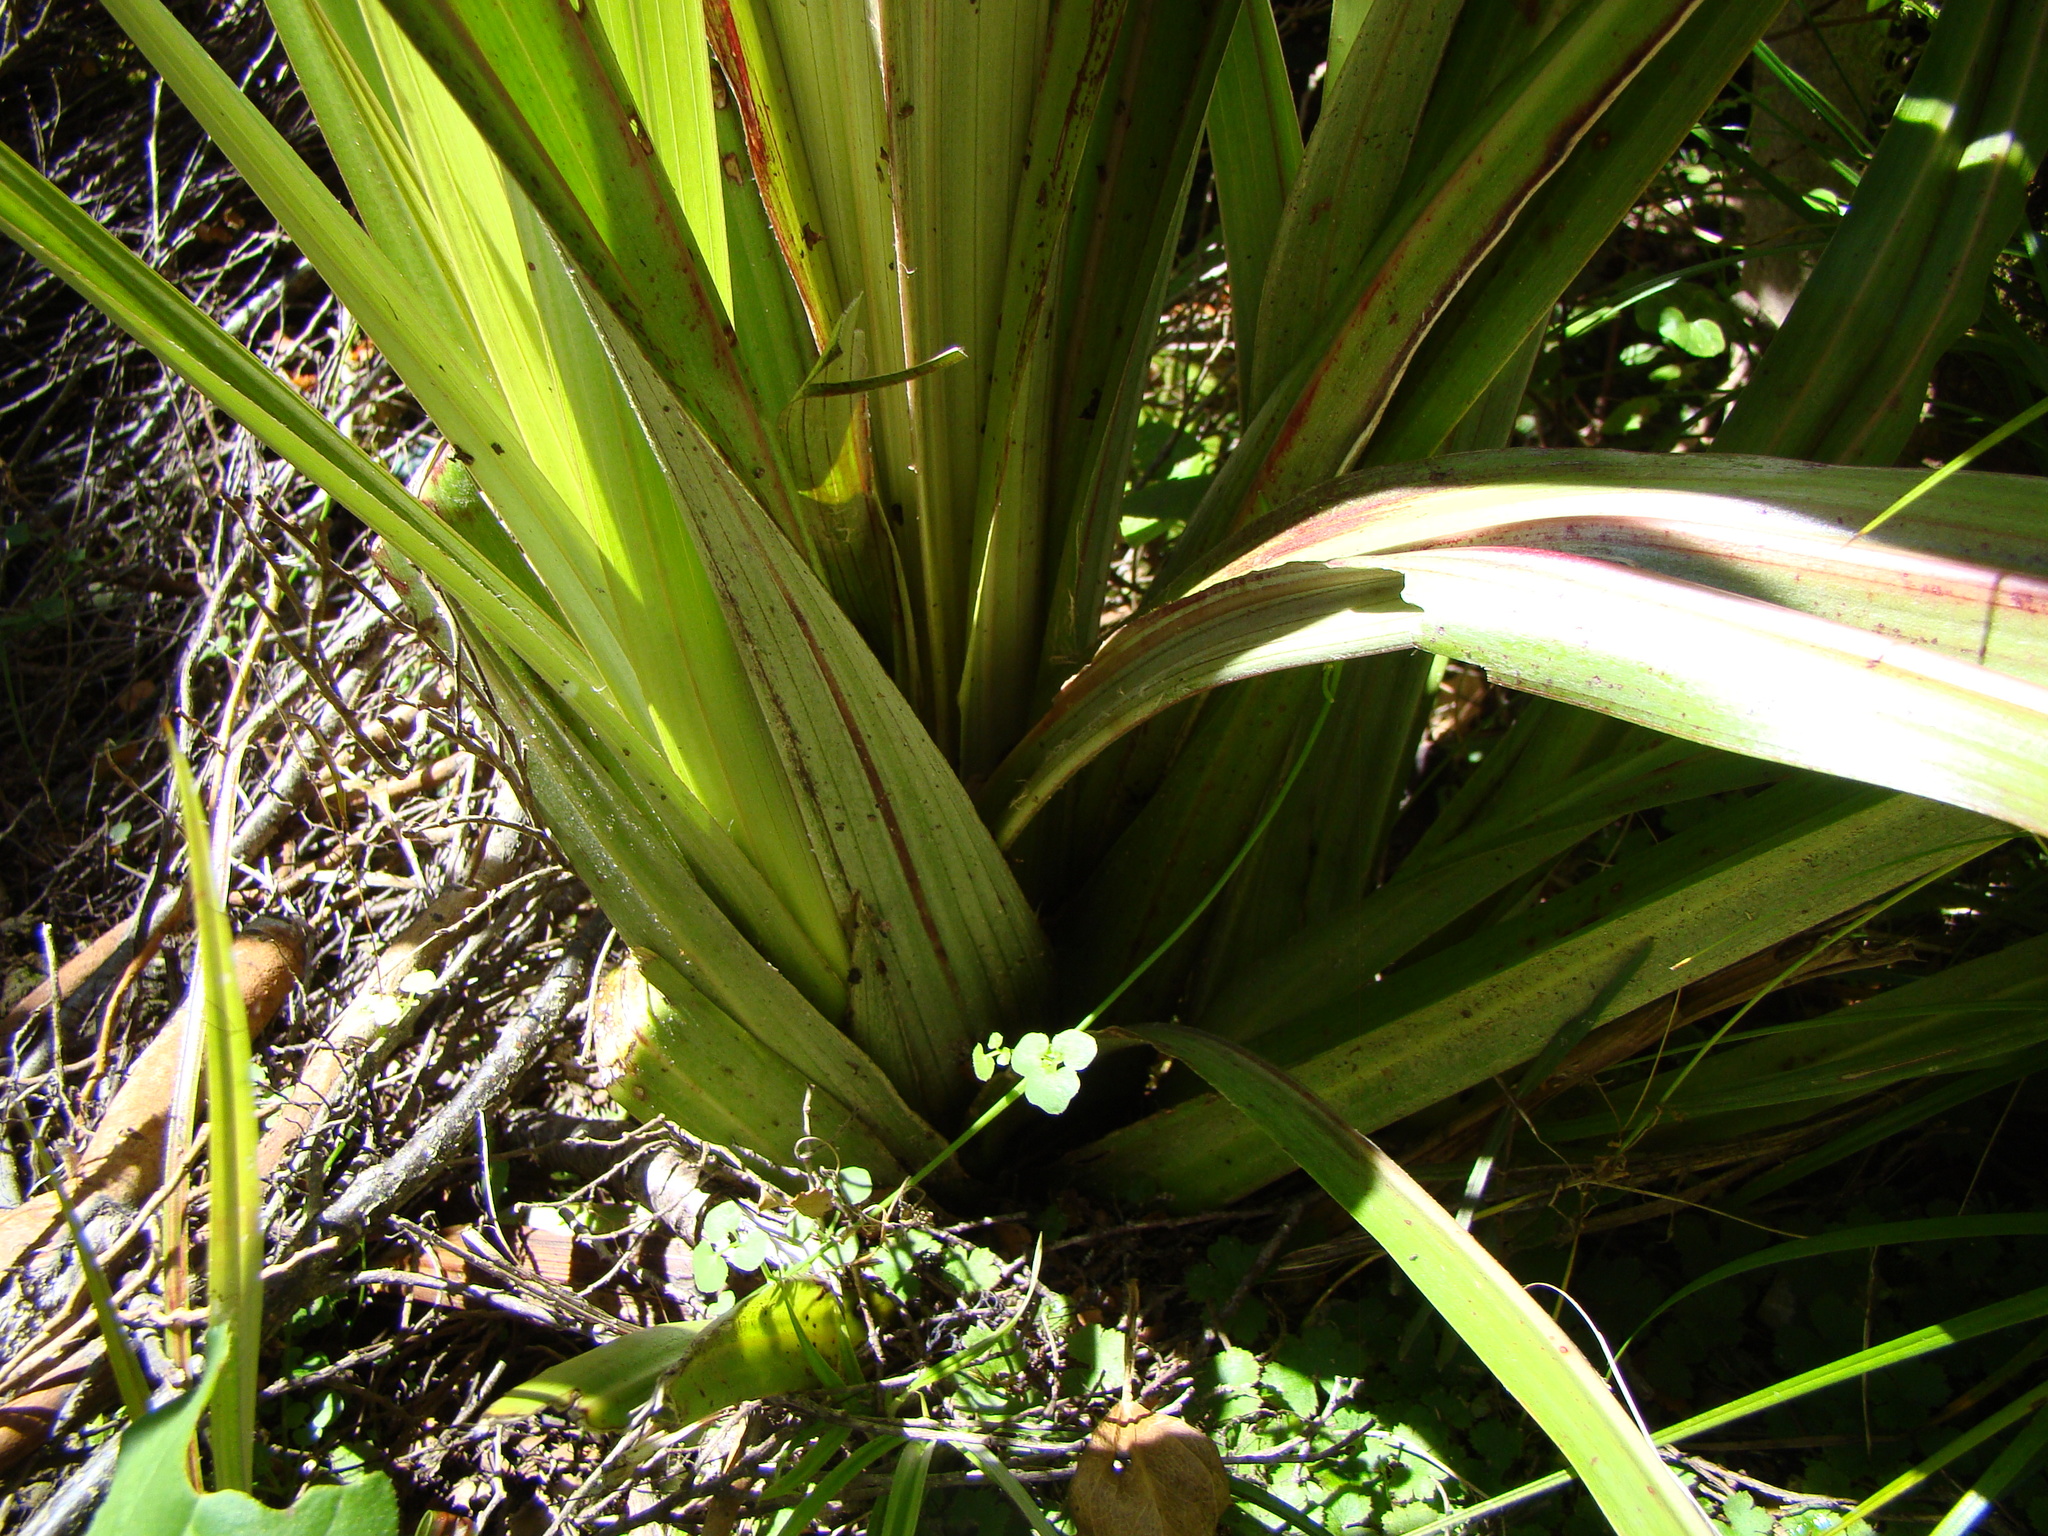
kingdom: Plantae
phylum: Tracheophyta
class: Liliopsida
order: Asparagales
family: Asteliaceae
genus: Astelia
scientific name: Astelia fragrans
